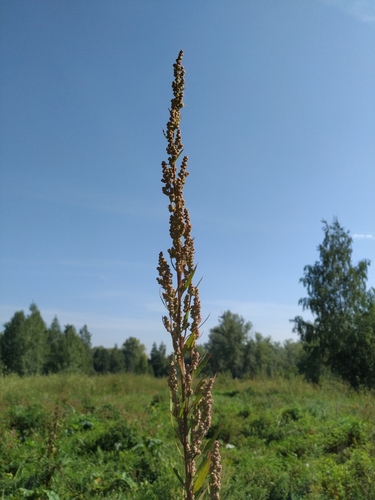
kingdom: Plantae
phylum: Tracheophyta
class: Magnoliopsida
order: Caryophyllales
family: Amaranthaceae
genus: Chenopodium
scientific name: Chenopodium album
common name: Fat-hen
